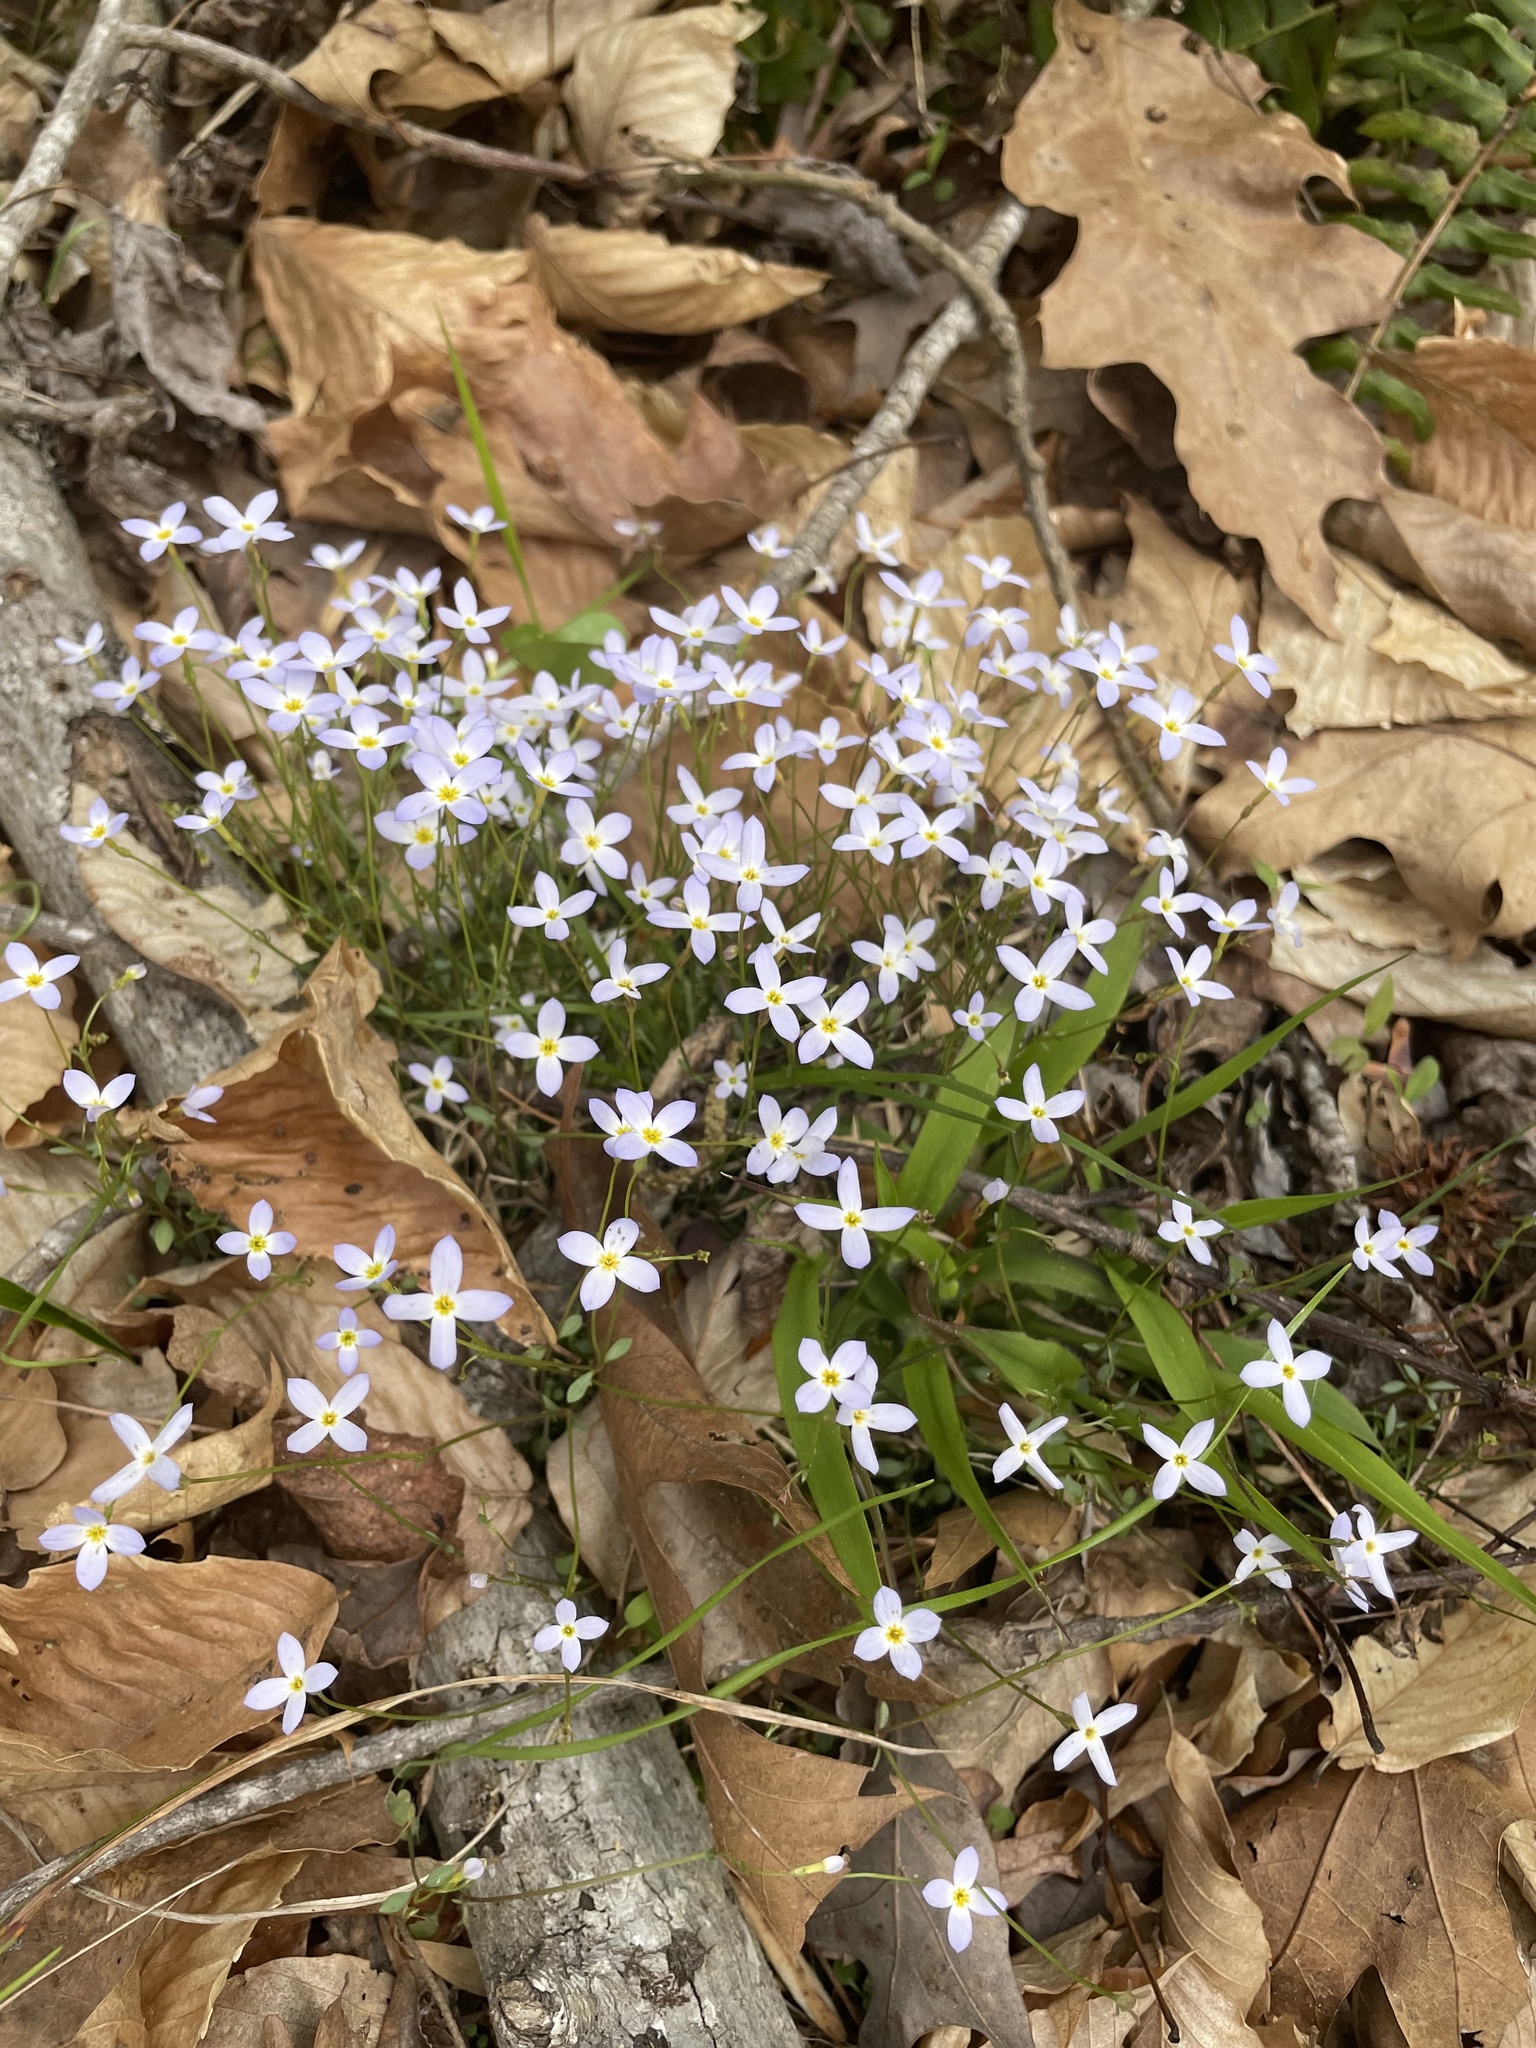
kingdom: Plantae
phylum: Tracheophyta
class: Magnoliopsida
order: Gentianales
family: Rubiaceae
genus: Houstonia
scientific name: Houstonia caerulea
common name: Bluets
